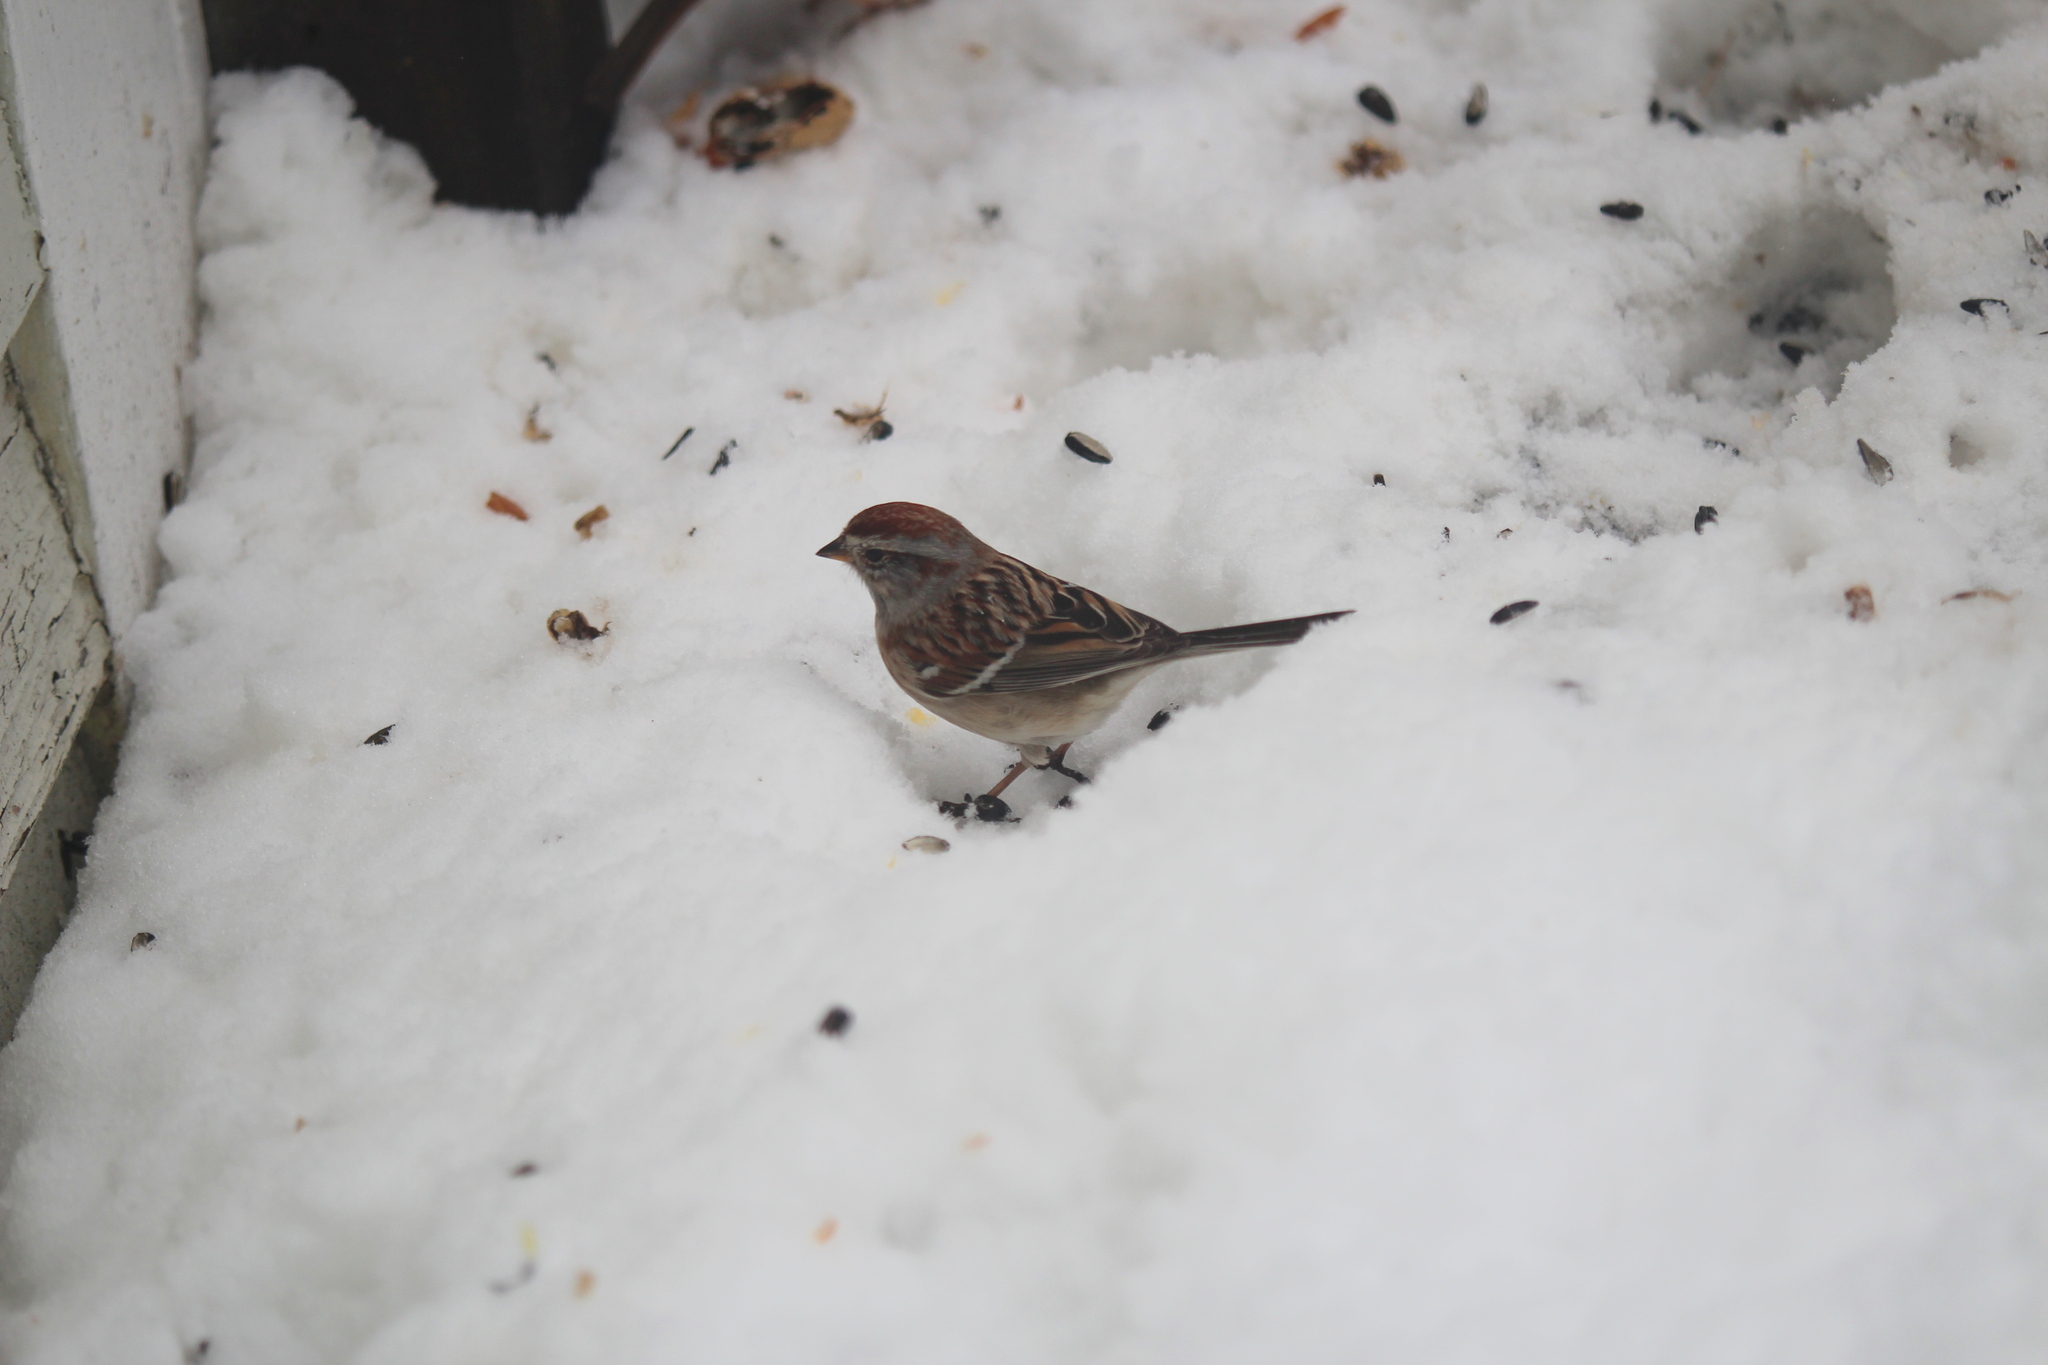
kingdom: Animalia
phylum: Chordata
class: Aves
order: Passeriformes
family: Passerellidae
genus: Spizelloides
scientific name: Spizelloides arborea
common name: American tree sparrow
